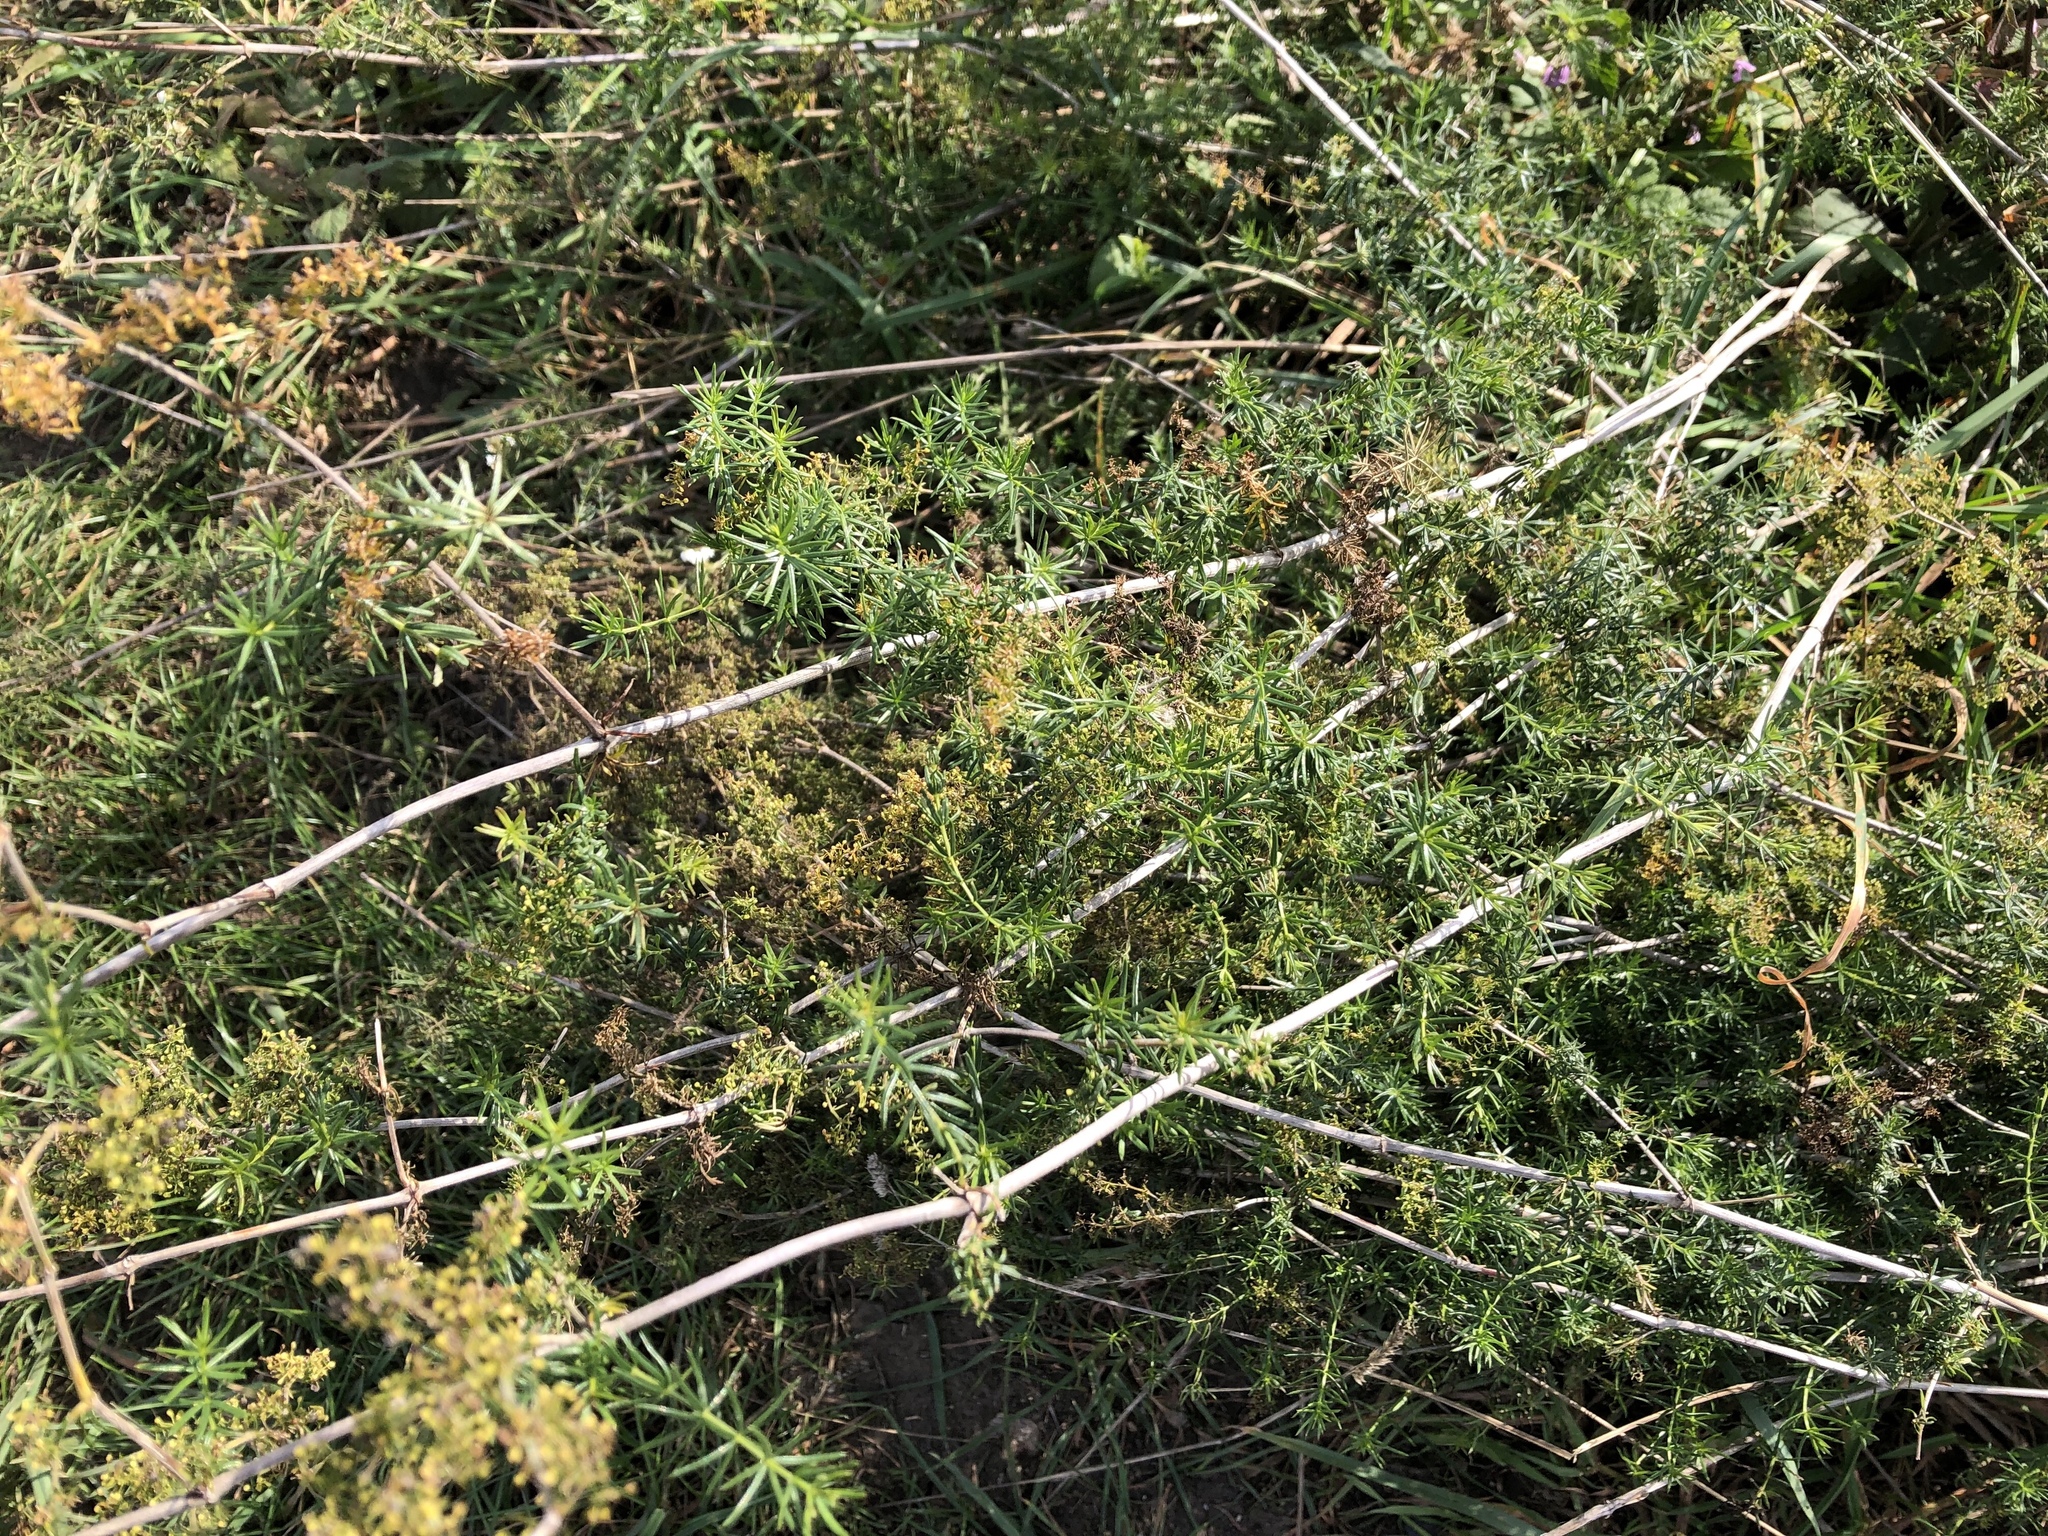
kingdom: Plantae
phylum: Tracheophyta
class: Magnoliopsida
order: Gentianales
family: Rubiaceae
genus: Galium
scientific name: Galium verum
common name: Lady's bedstraw
